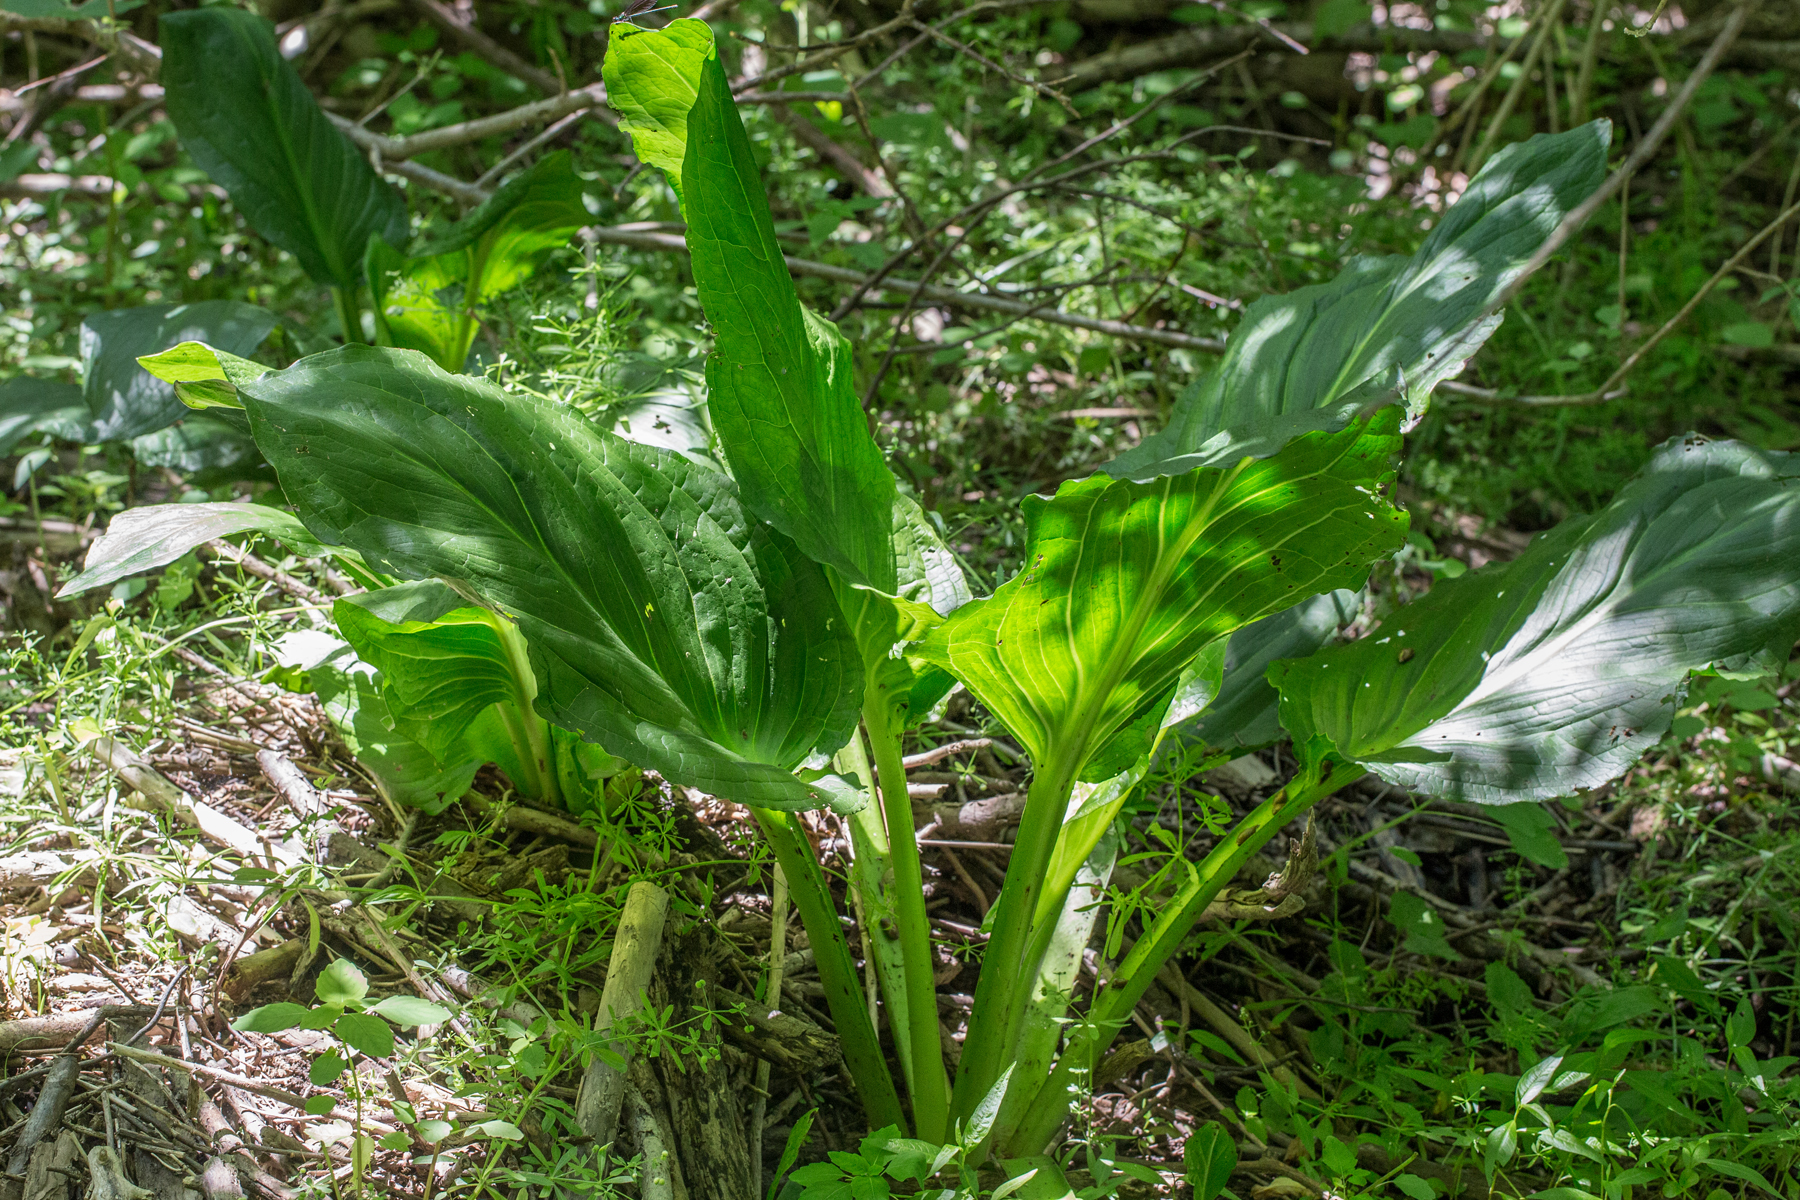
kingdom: Plantae
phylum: Tracheophyta
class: Liliopsida
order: Alismatales
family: Araceae
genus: Symplocarpus
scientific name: Symplocarpus foetidus
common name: Eastern skunk cabbage
